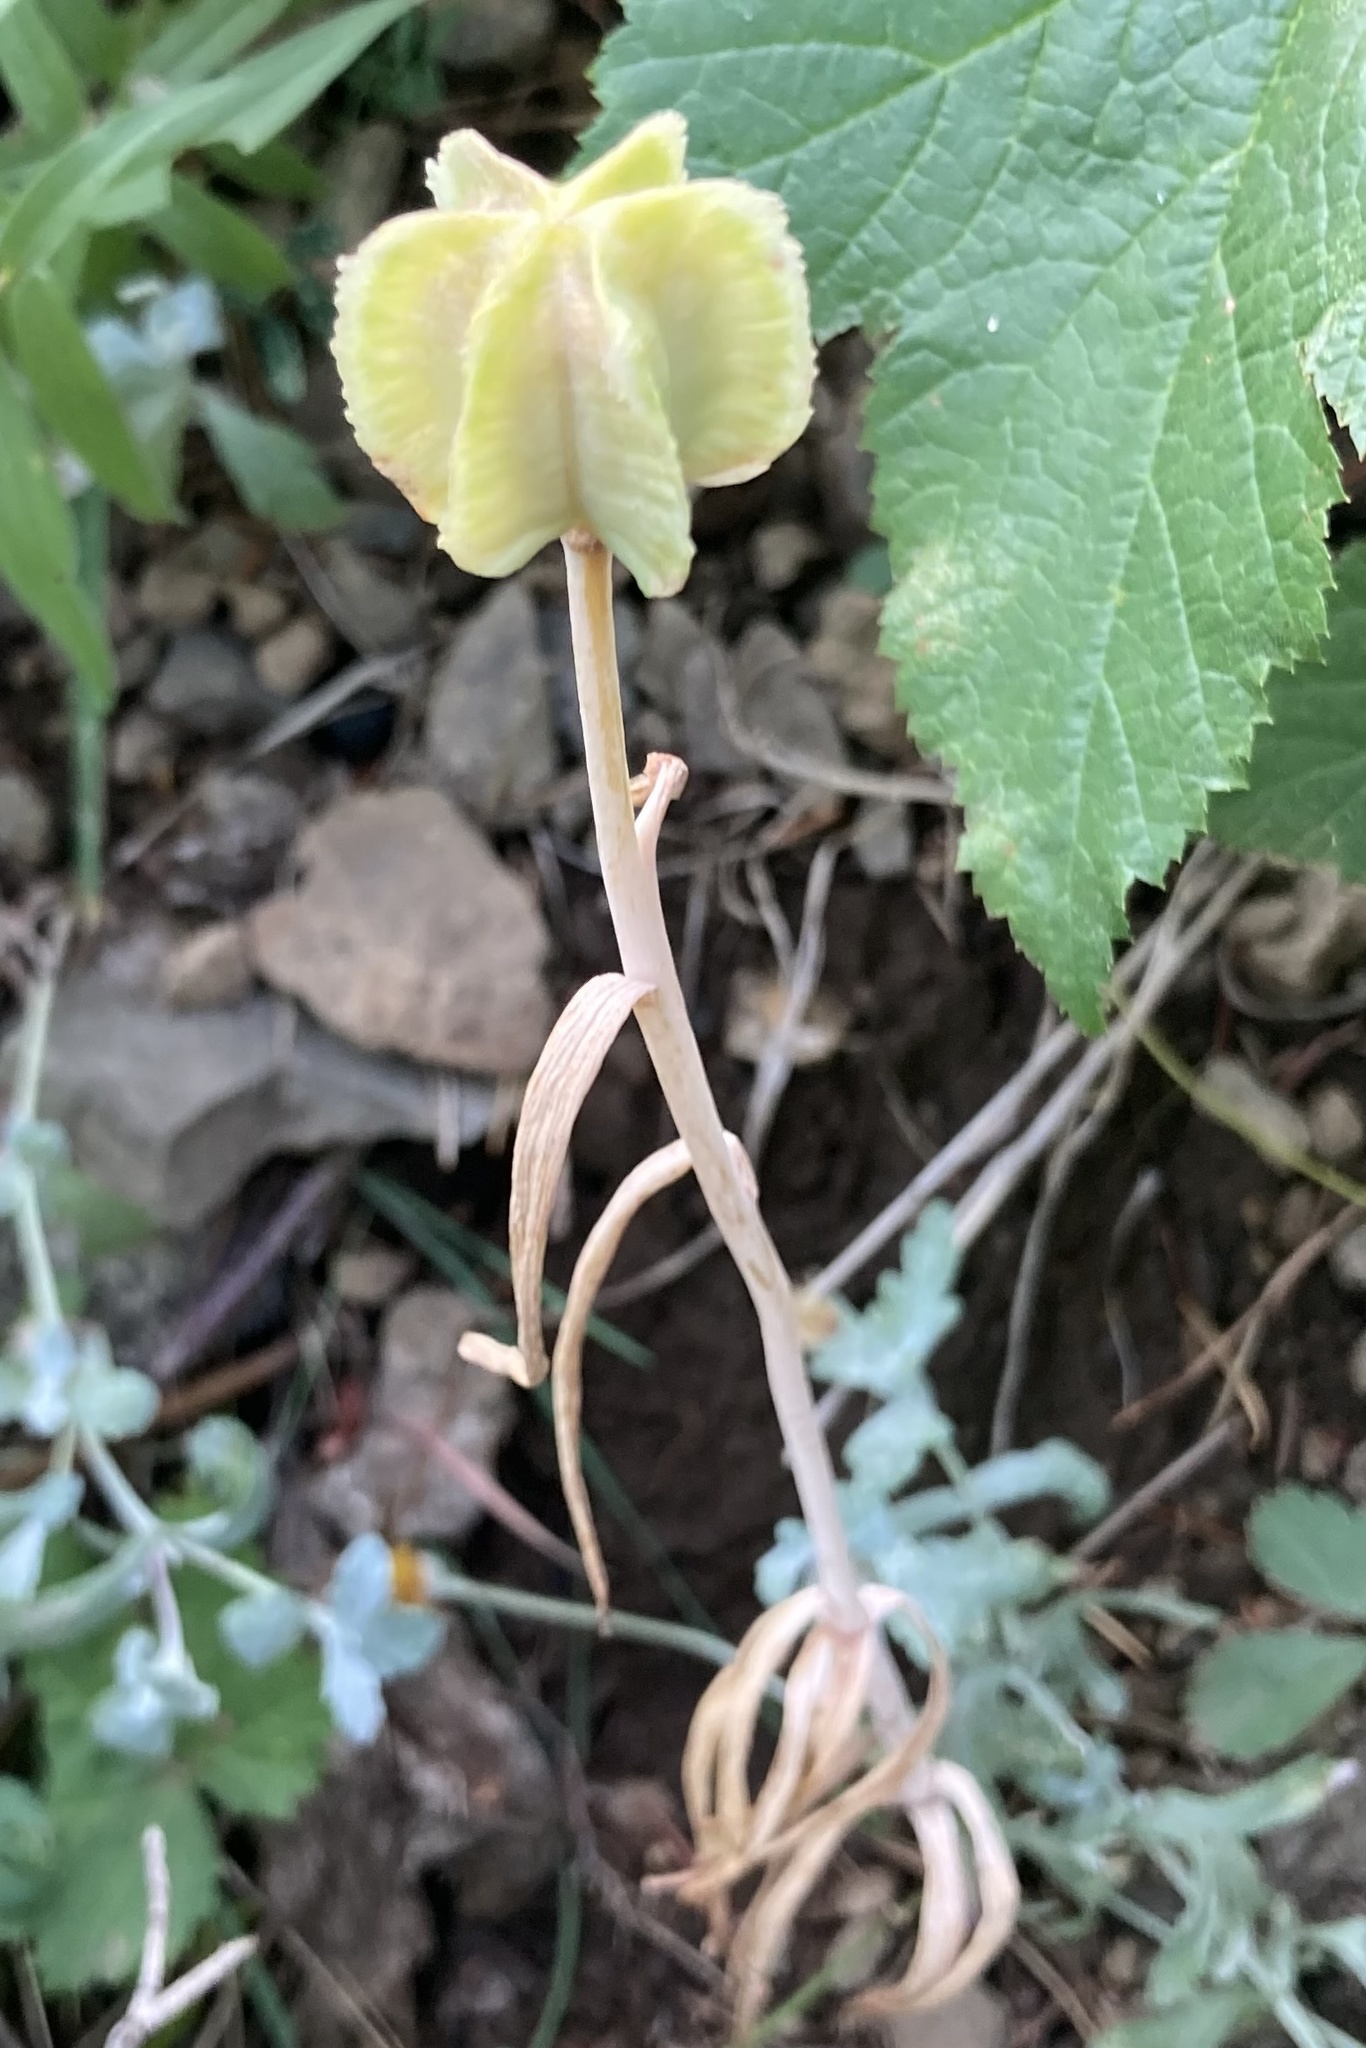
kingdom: Plantae
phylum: Tracheophyta
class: Liliopsida
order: Liliales
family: Liliaceae
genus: Fritillaria
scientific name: Fritillaria affinis
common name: Ojai fritillary
